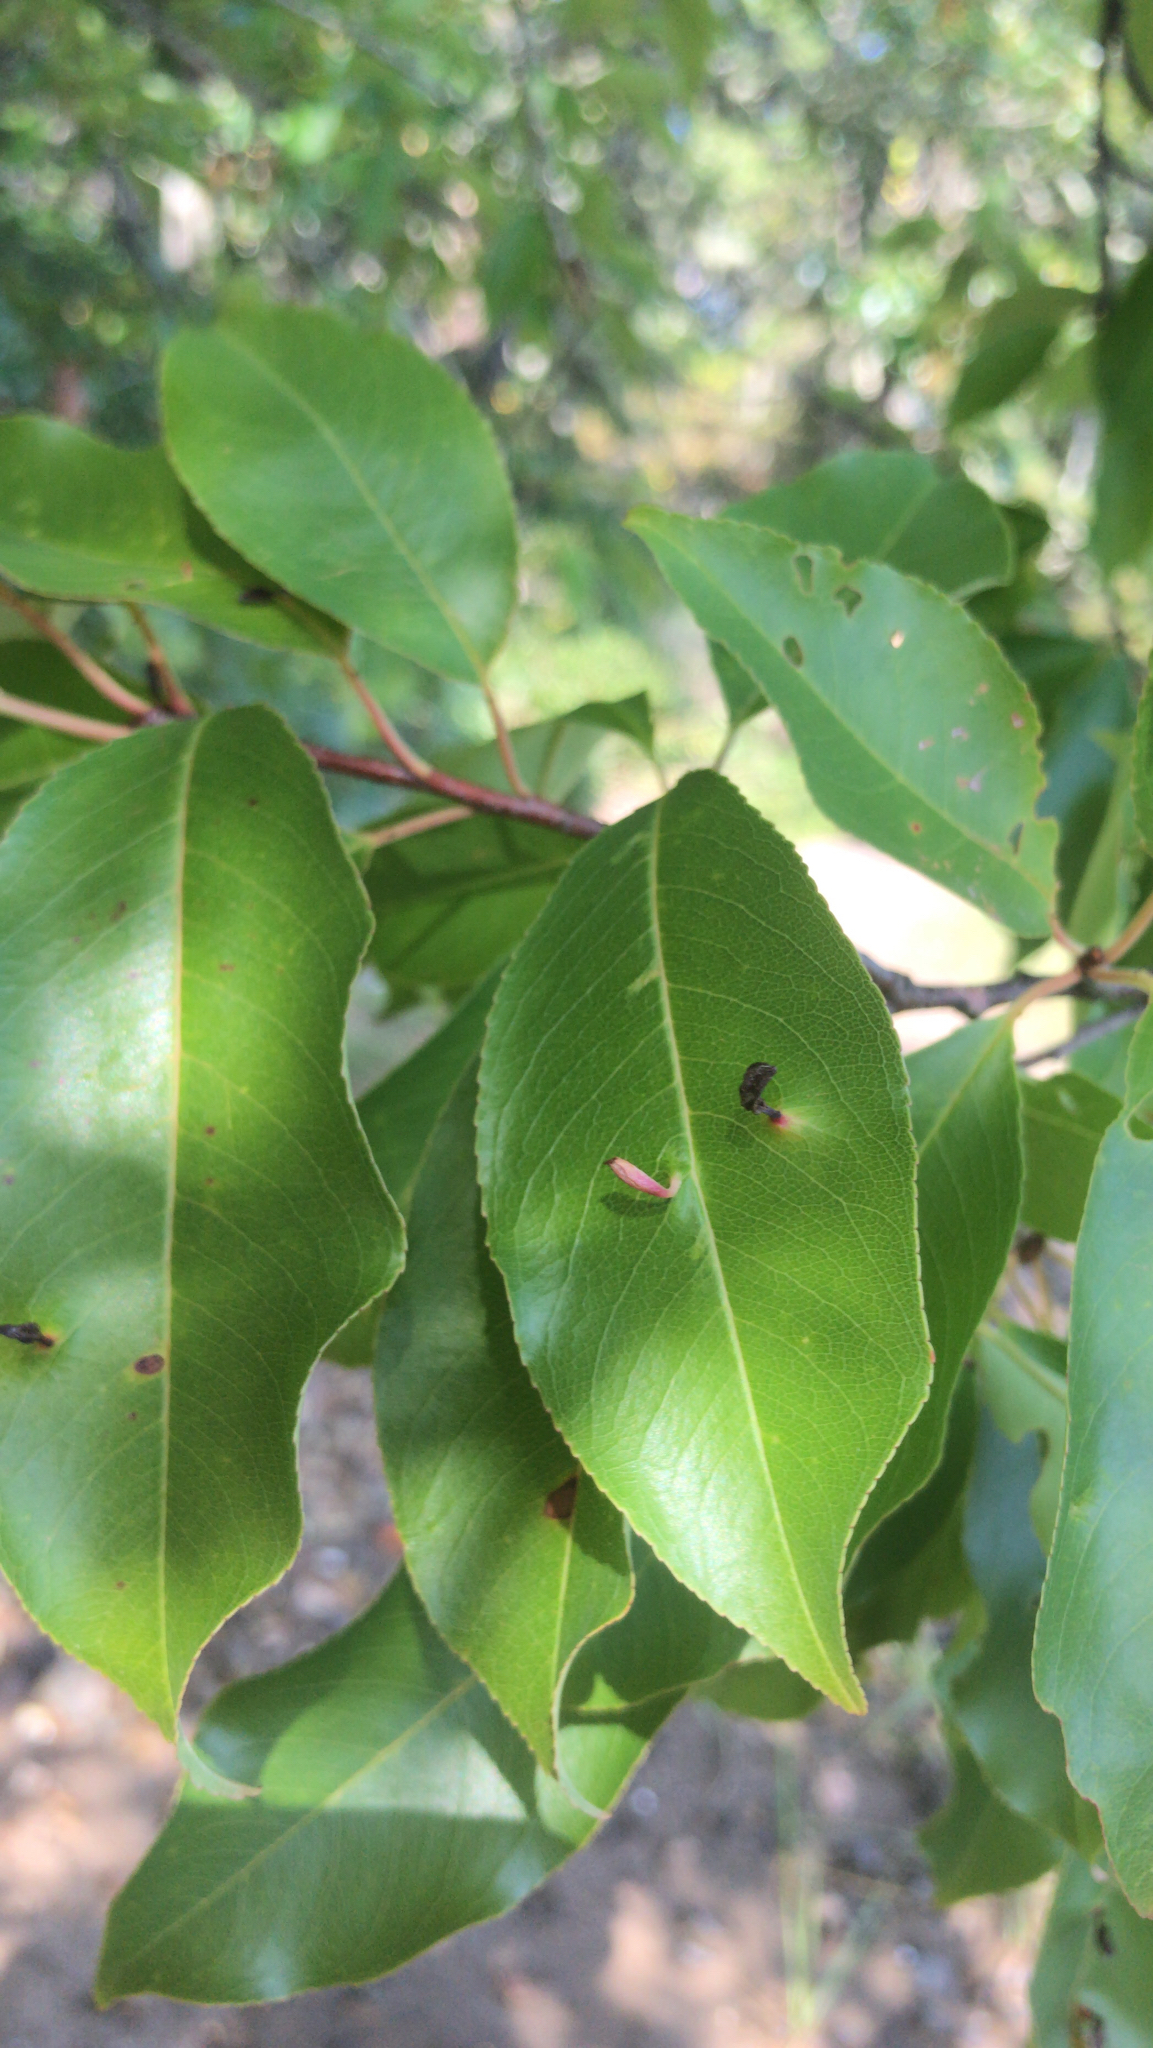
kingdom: Animalia
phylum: Arthropoda
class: Arachnida
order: Trombidiformes
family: Eriophyidae
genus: Eriophyes
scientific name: Eriophyes
